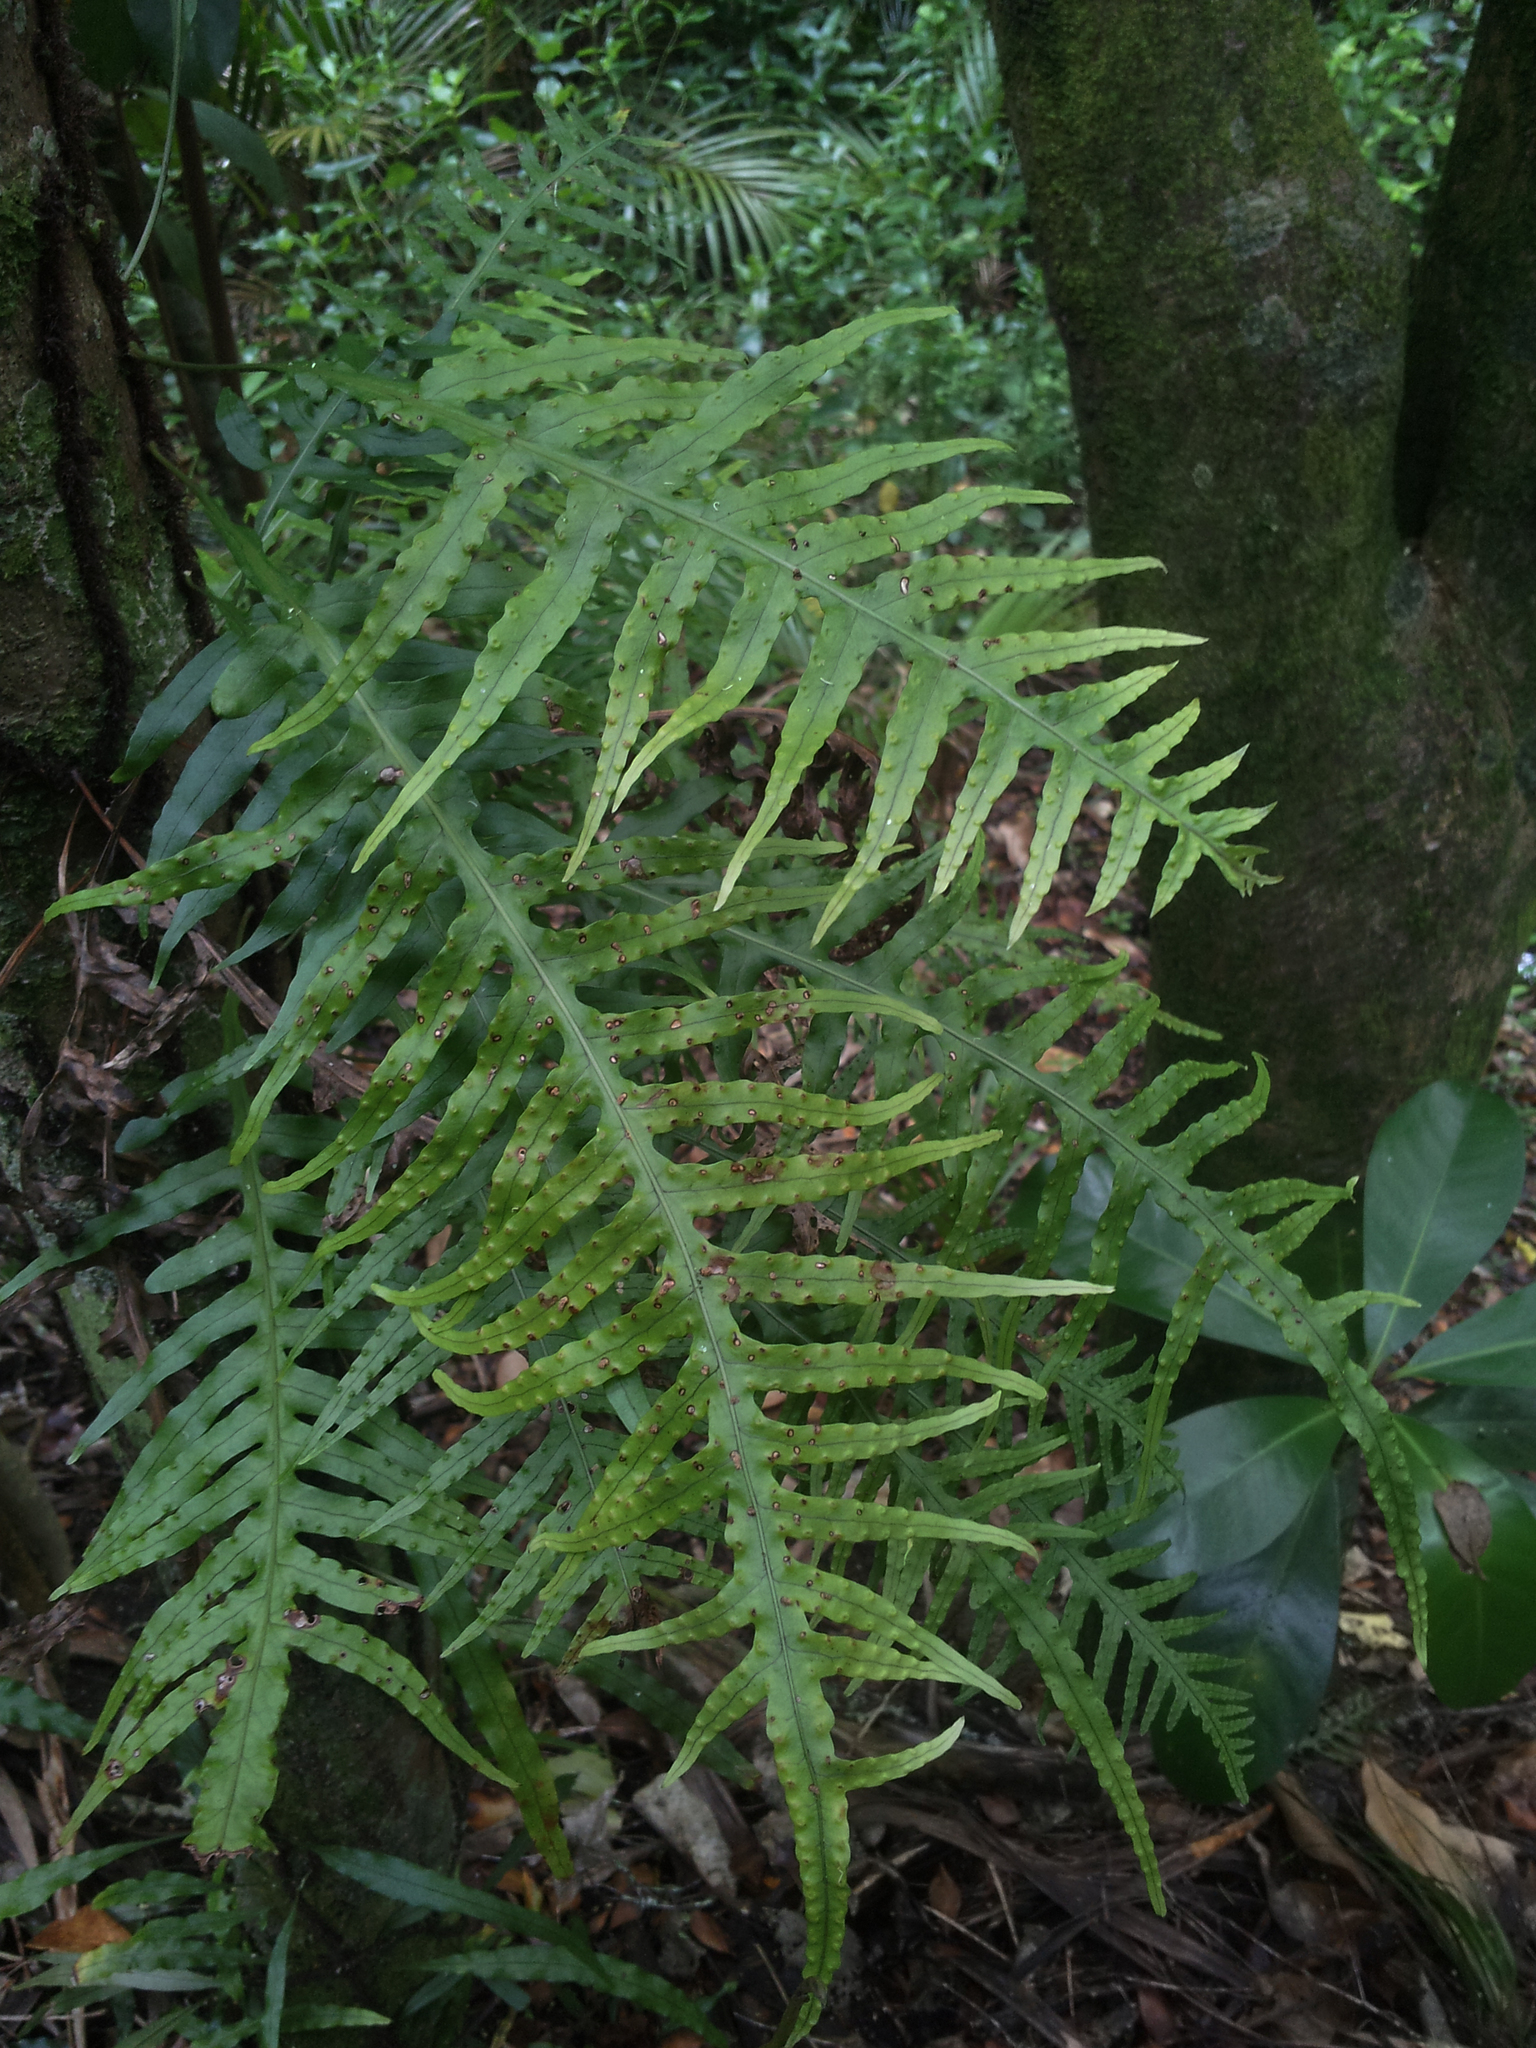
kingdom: Plantae
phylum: Tracheophyta
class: Polypodiopsida
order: Polypodiales
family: Polypodiaceae
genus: Lecanopteris
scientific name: Lecanopteris scandens
